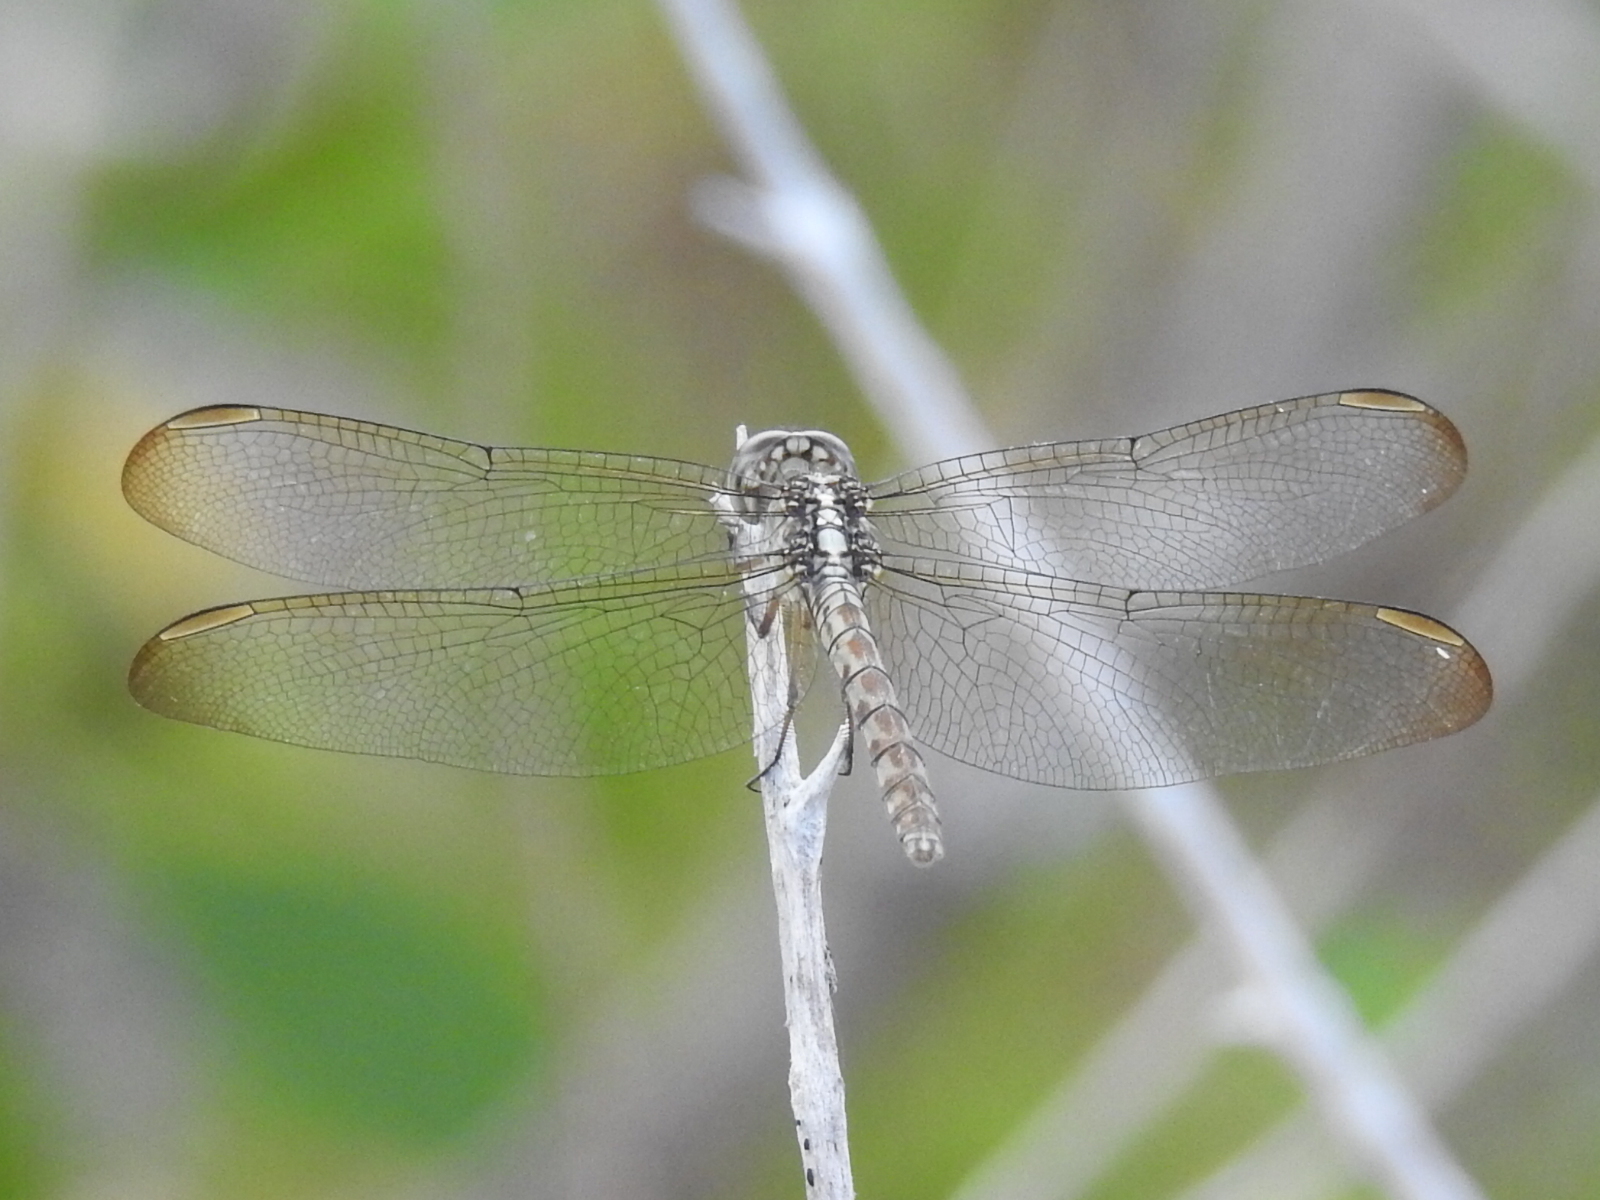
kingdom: Animalia
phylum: Arthropoda
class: Insecta
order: Odonata
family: Libellulidae
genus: Erythrodiplax
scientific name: Erythrodiplax umbrata
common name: Band-winged dragonlet
